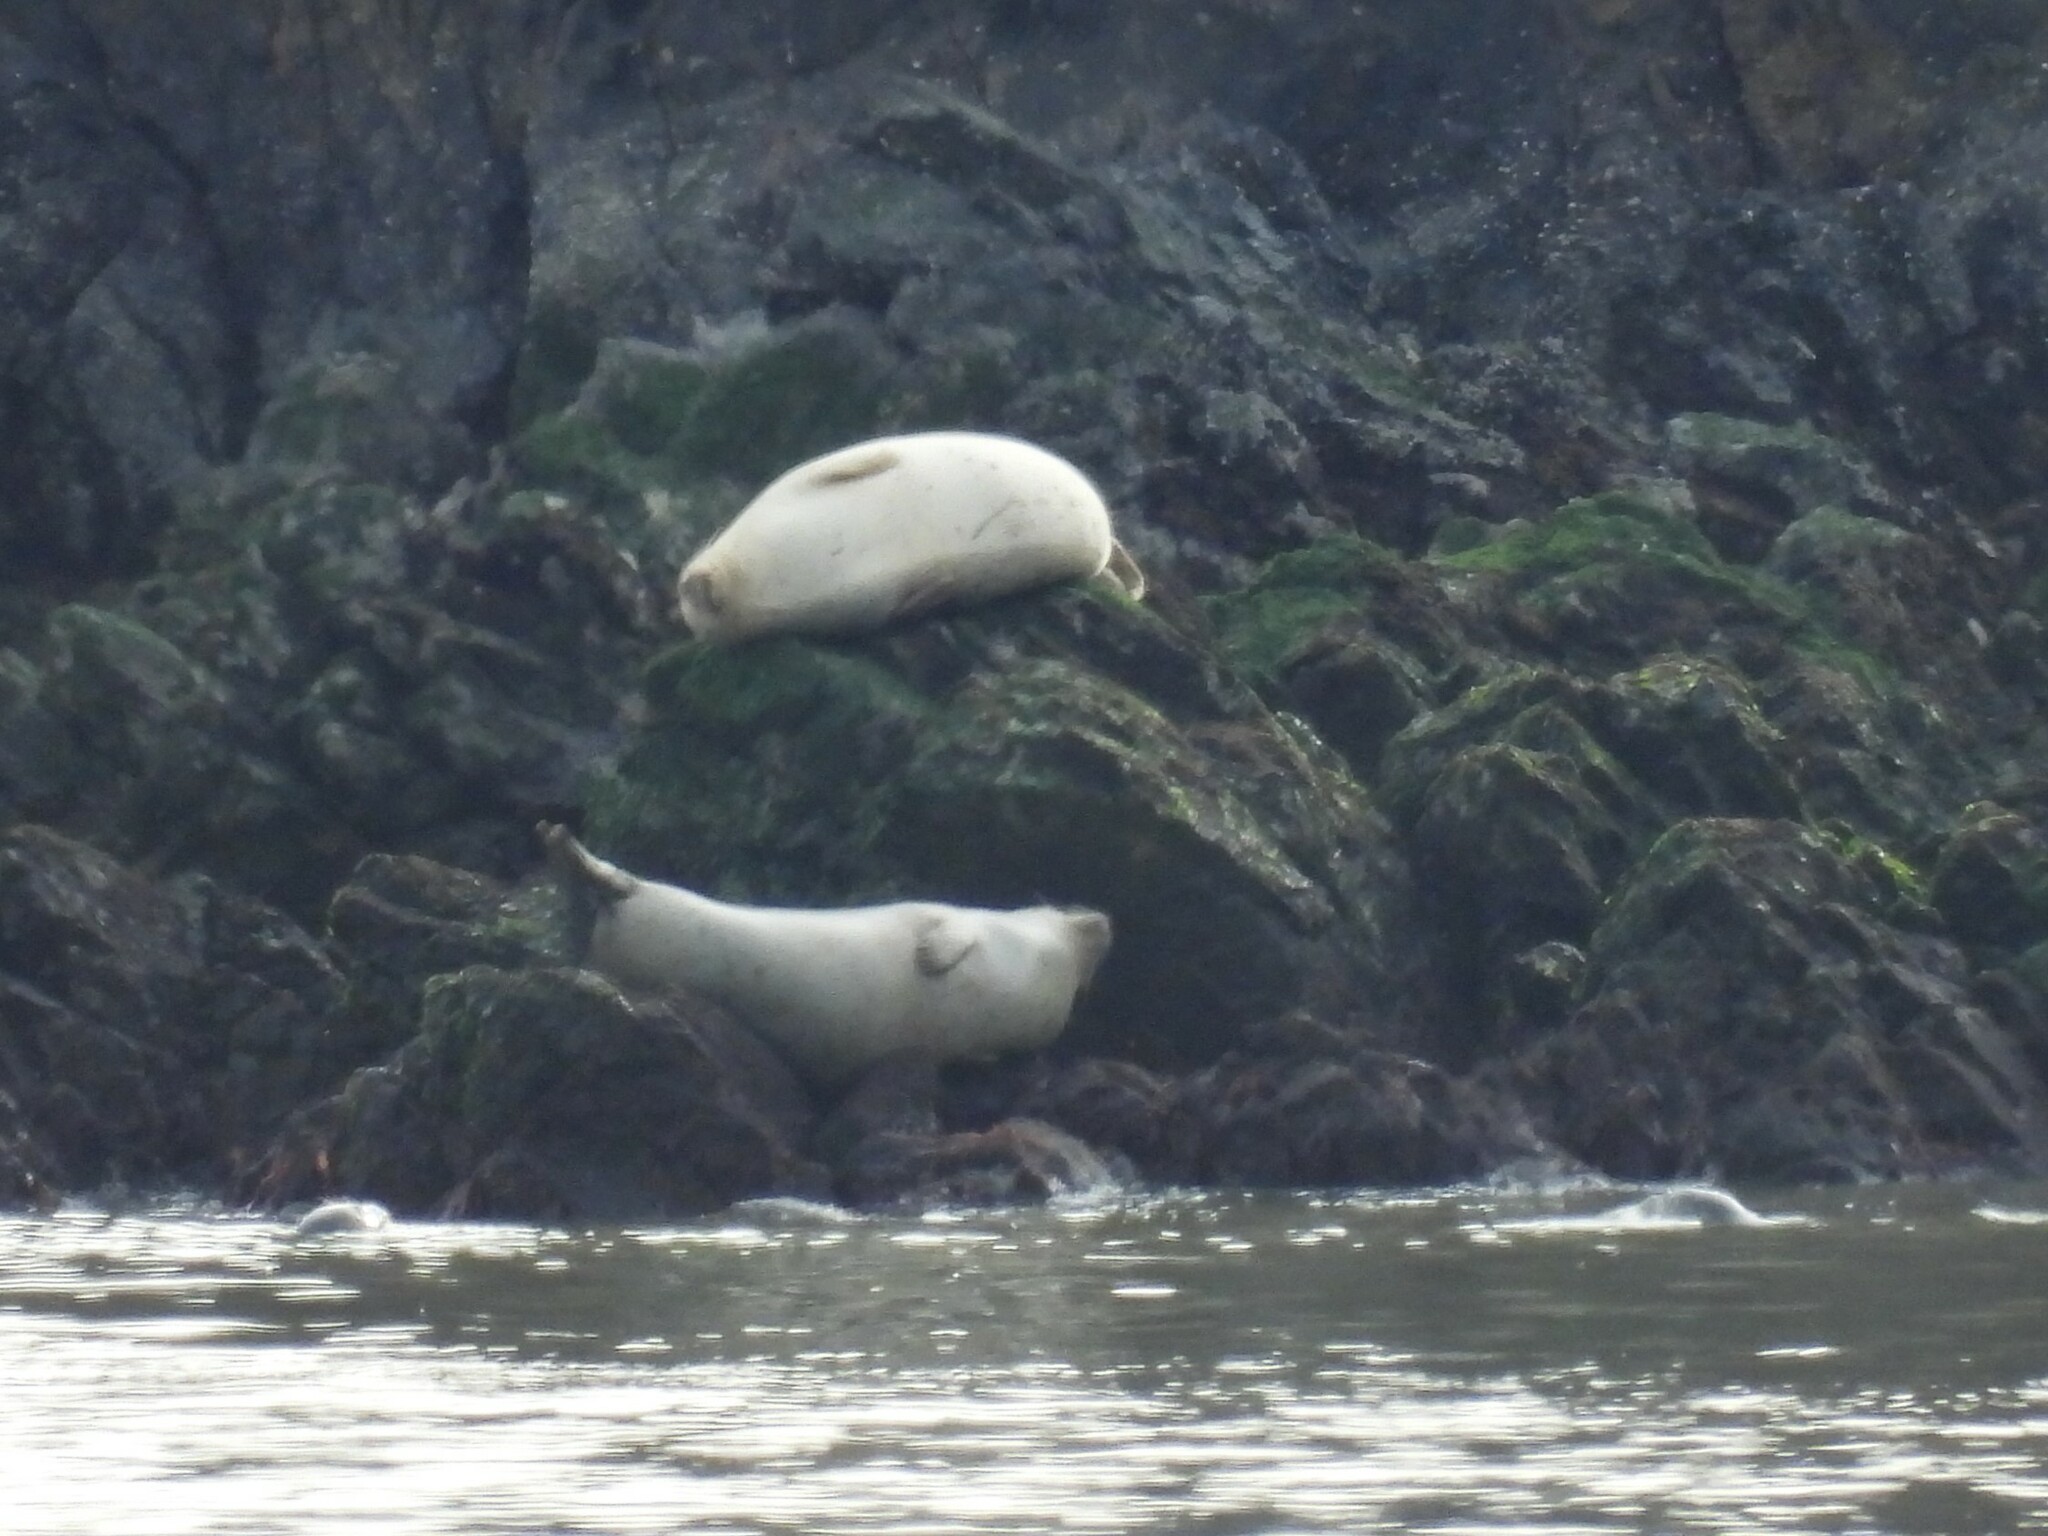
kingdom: Animalia
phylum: Chordata
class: Mammalia
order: Carnivora
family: Phocidae
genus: Phoca
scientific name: Phoca vitulina
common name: Harbor seal
